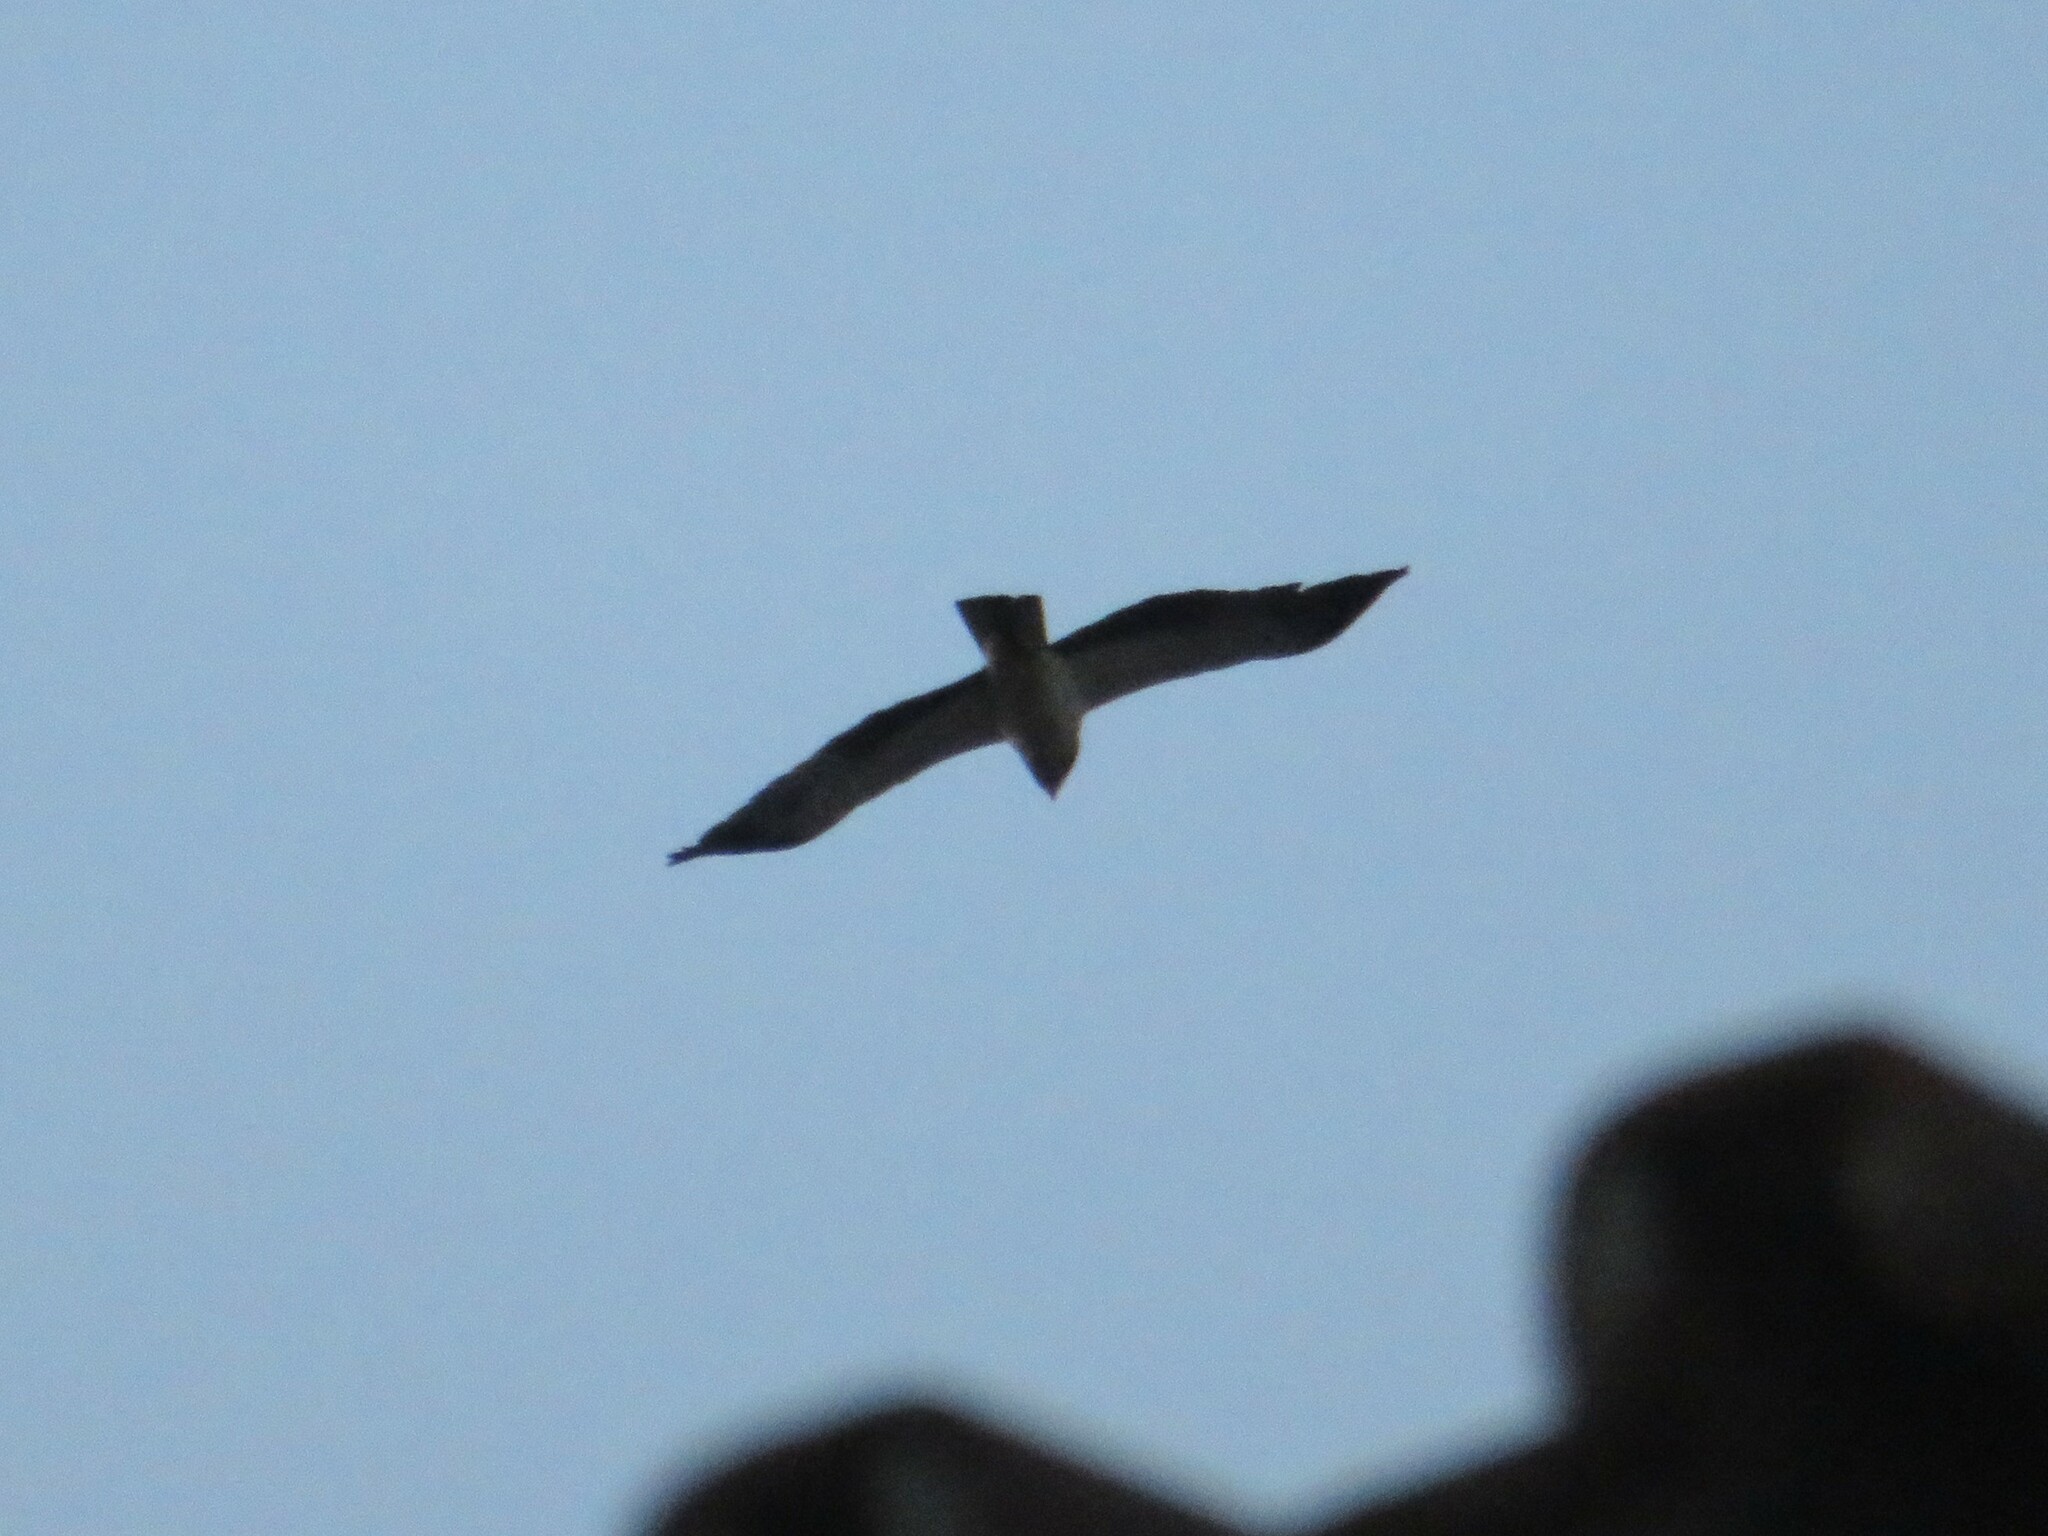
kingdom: Animalia
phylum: Chordata
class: Aves
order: Accipitriformes
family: Accipitridae
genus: Hieraaetus
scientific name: Hieraaetus pennatus
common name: Booted eagle
